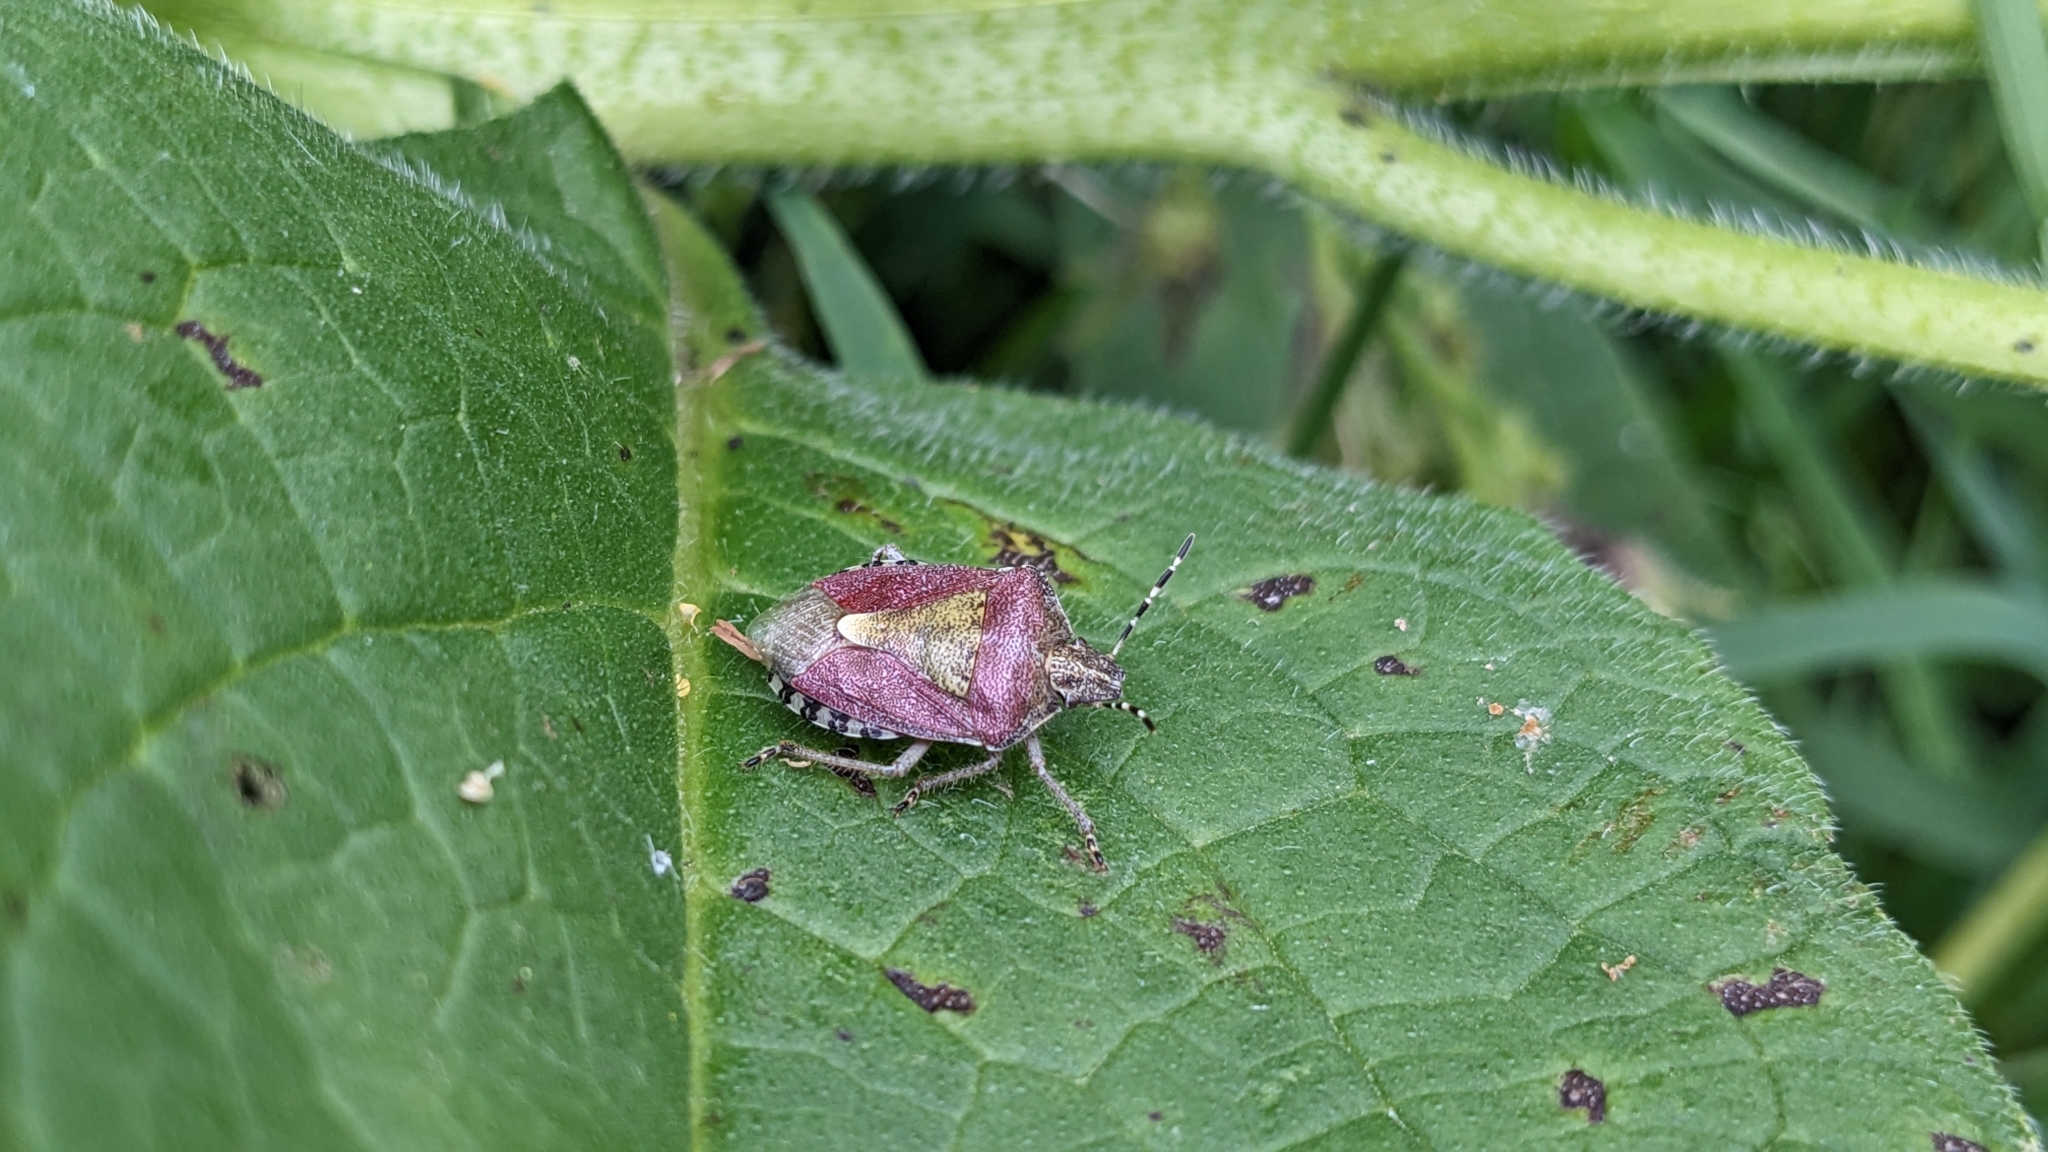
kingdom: Animalia
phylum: Arthropoda
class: Insecta
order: Hemiptera
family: Pentatomidae
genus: Dolycoris
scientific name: Dolycoris baccarum
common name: Sloe bug
